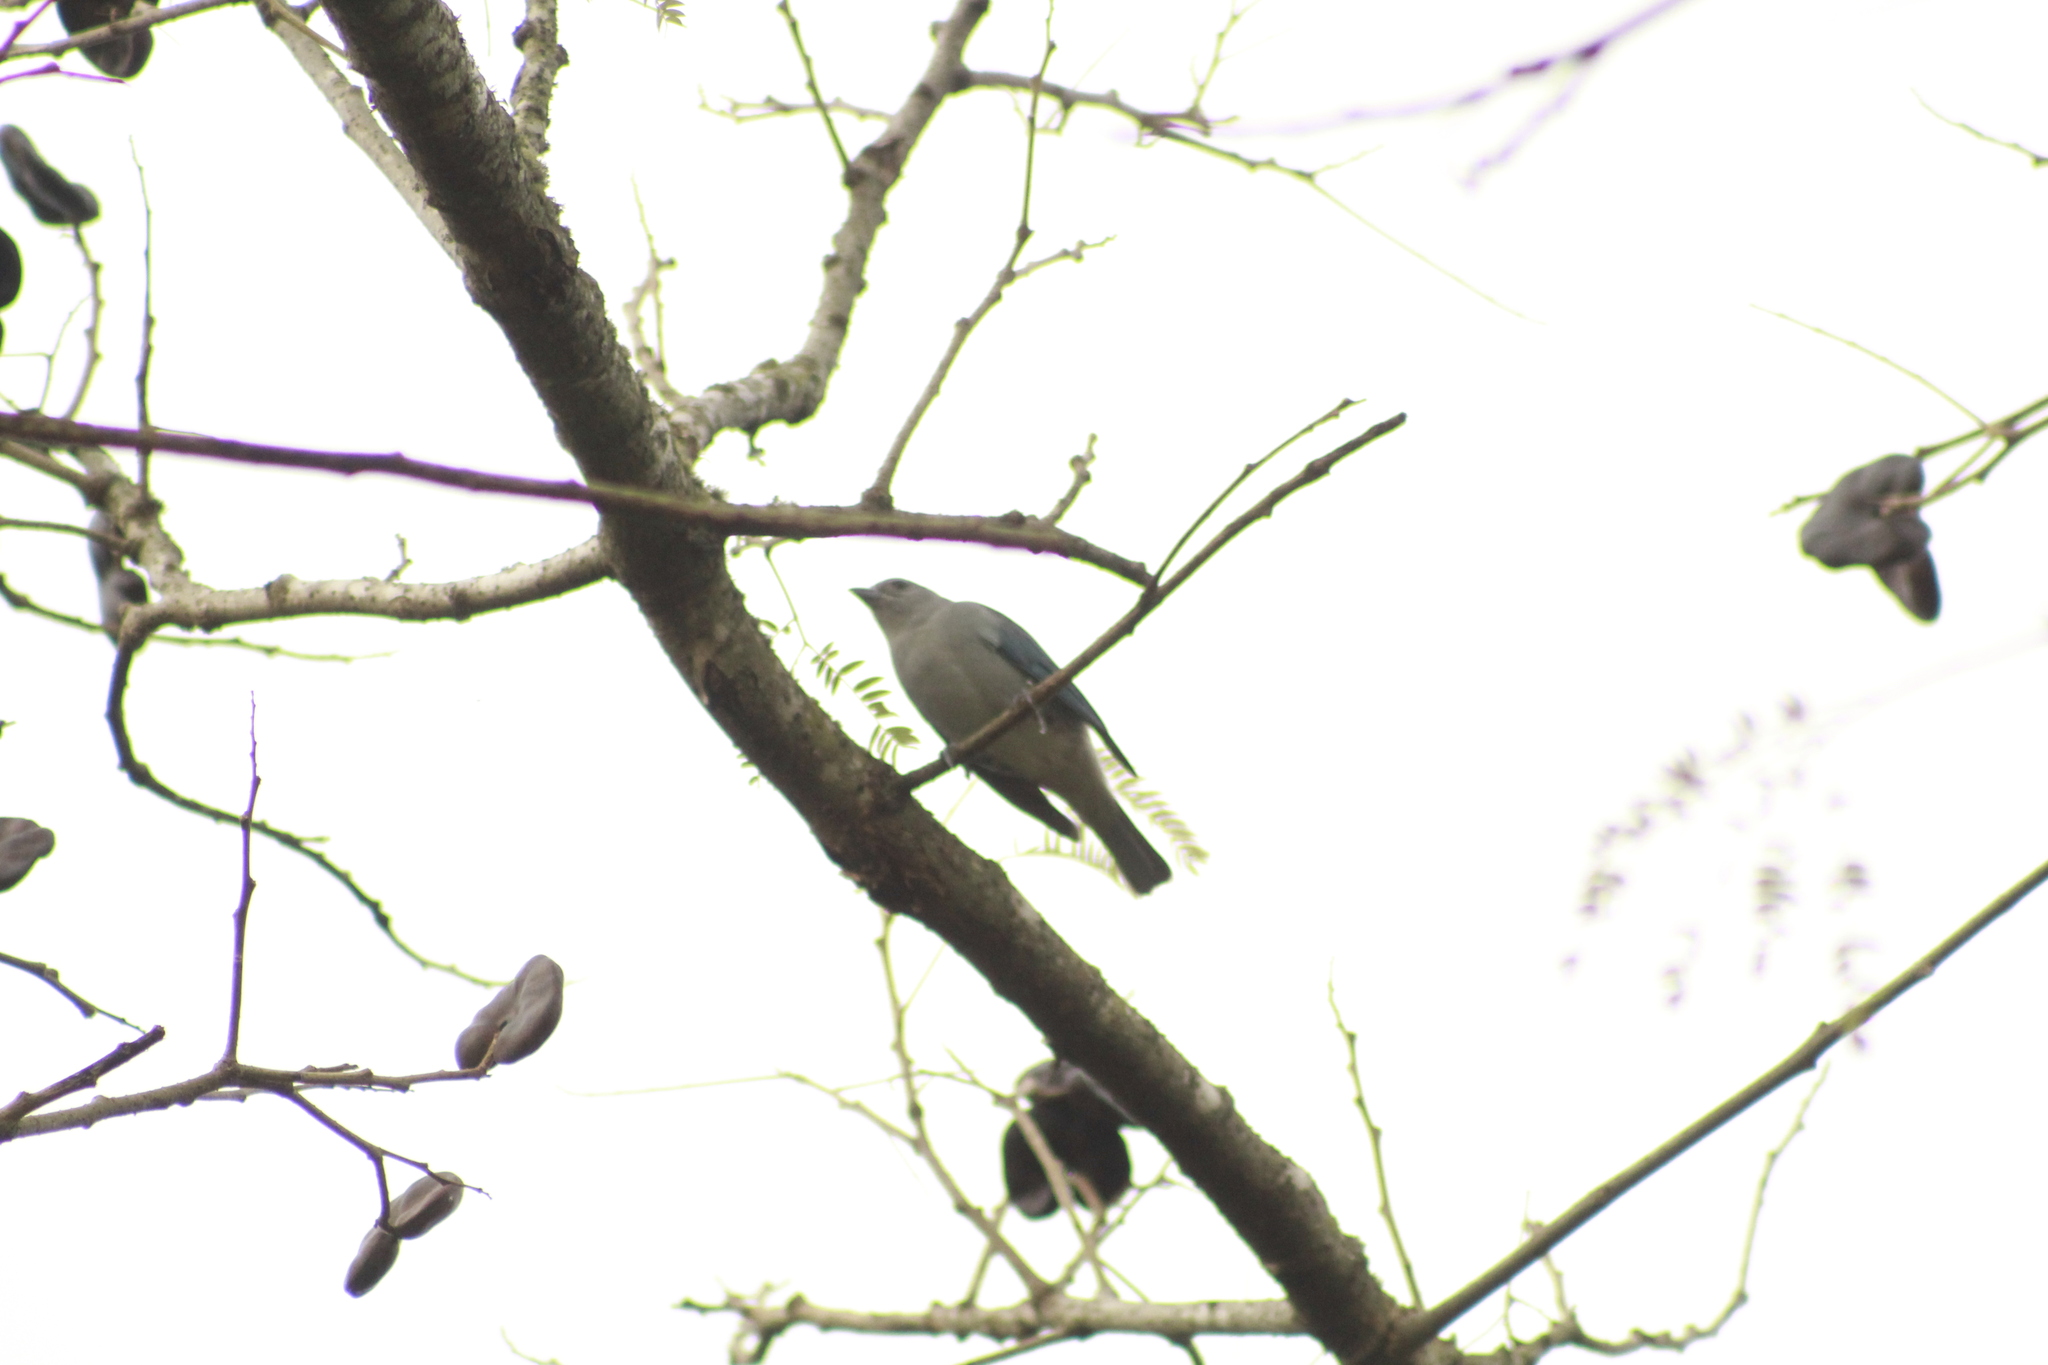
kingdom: Animalia
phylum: Chordata
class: Aves
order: Passeriformes
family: Thraupidae
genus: Thraupis
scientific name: Thraupis sayaca
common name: Sayaca tanager
